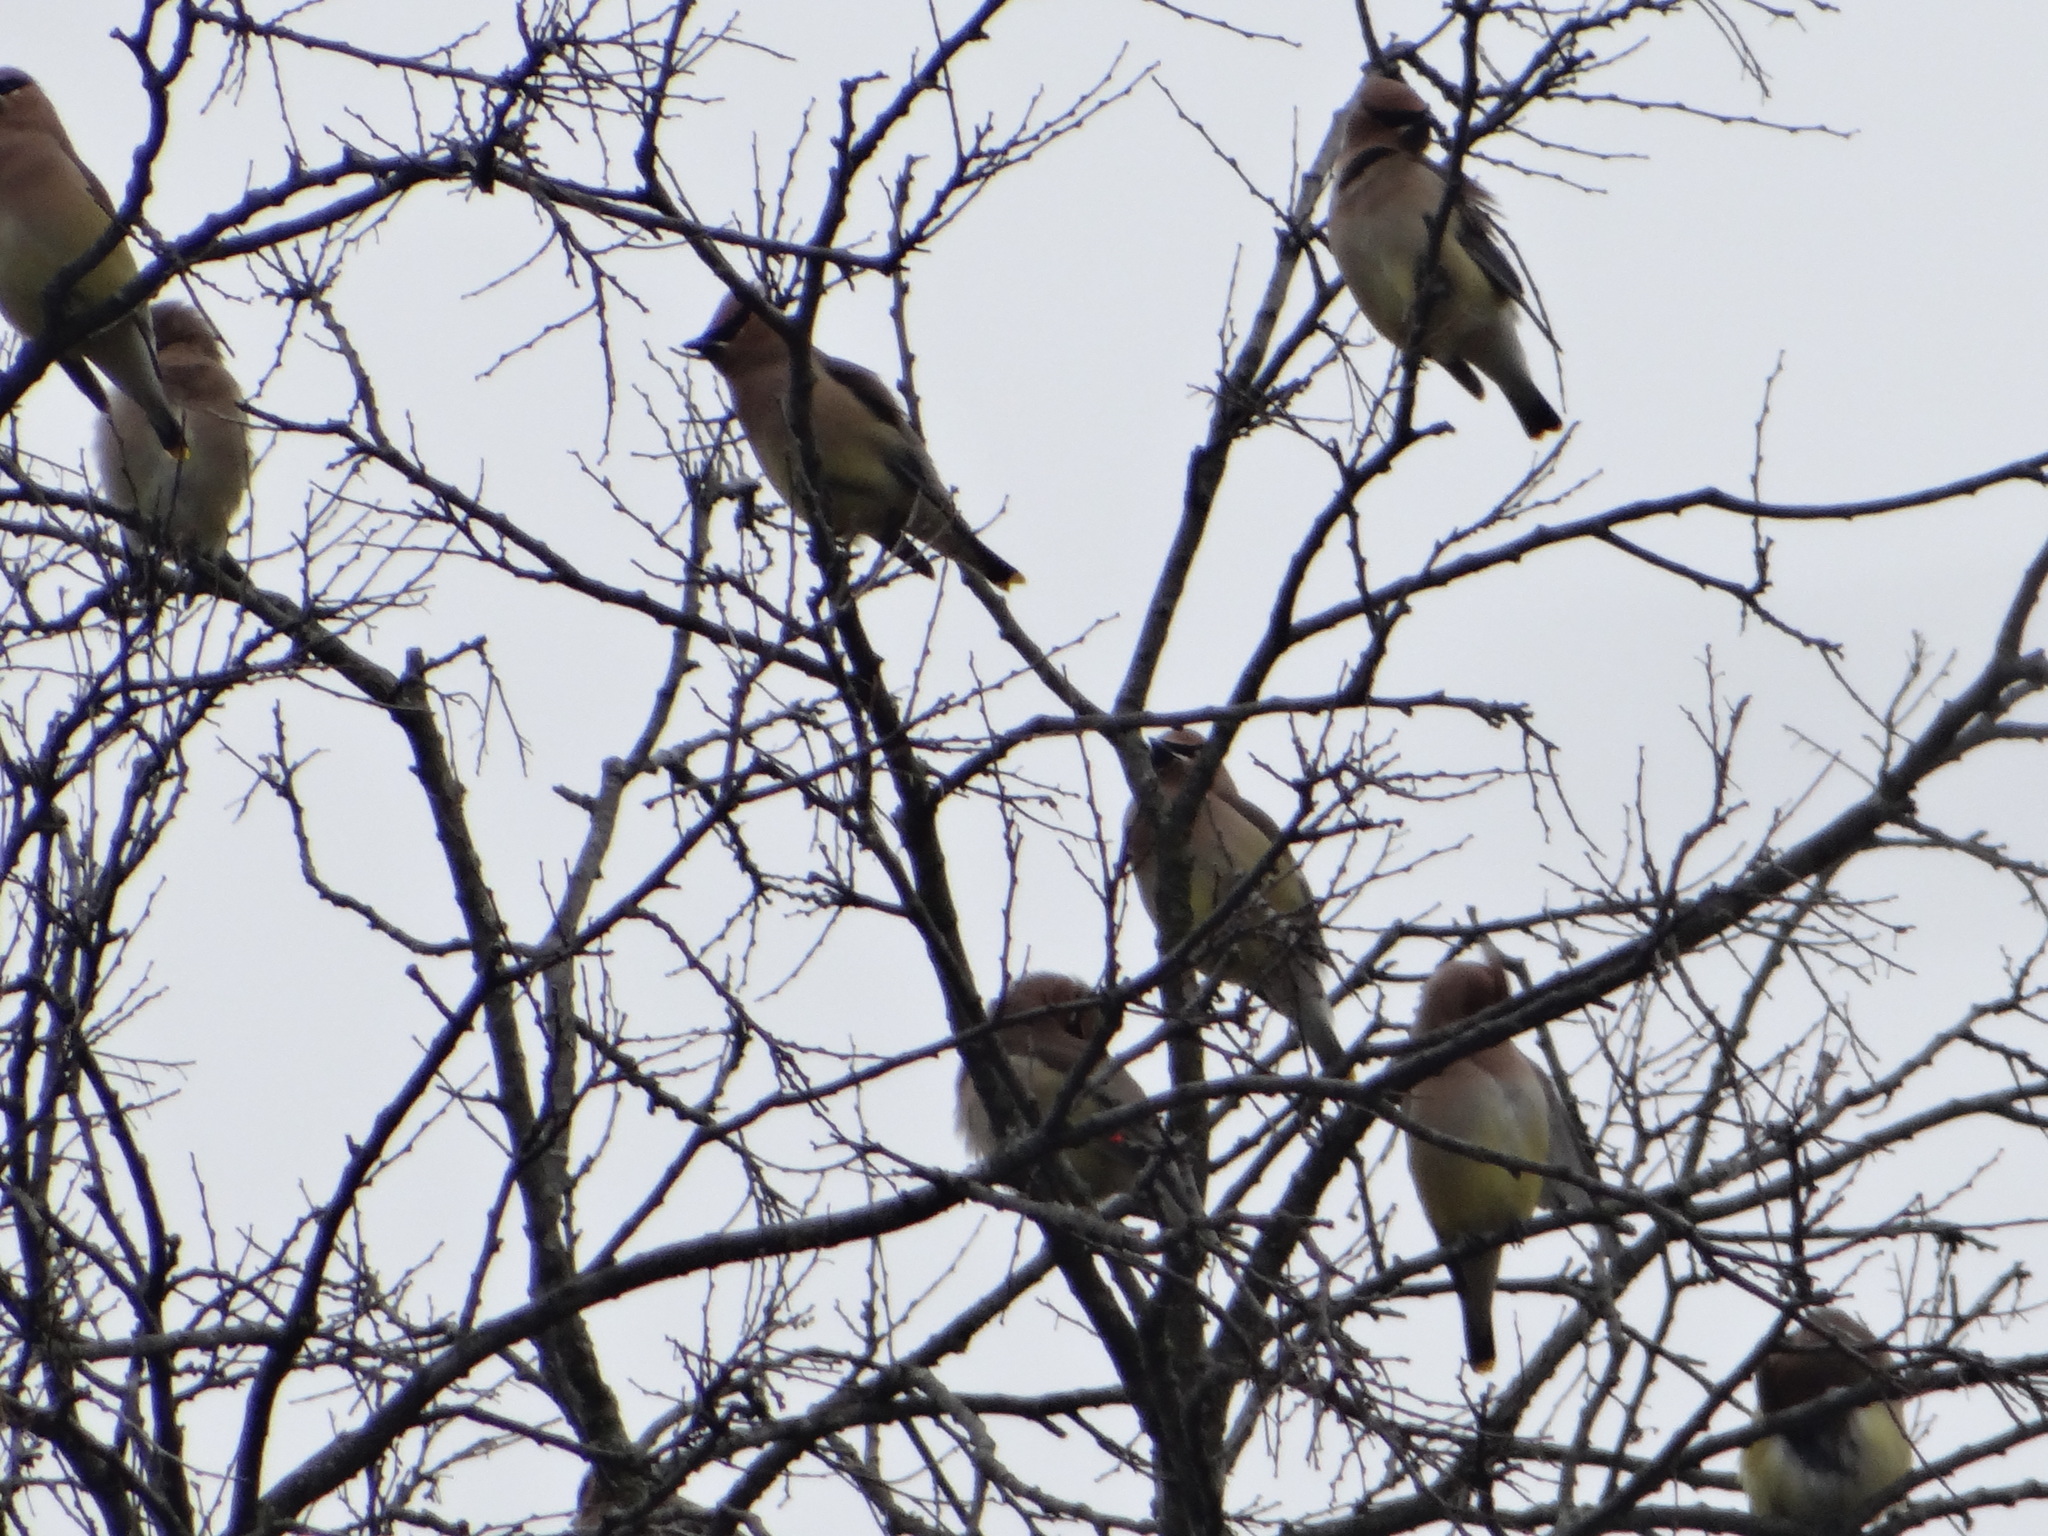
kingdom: Animalia
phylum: Chordata
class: Aves
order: Passeriformes
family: Bombycillidae
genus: Bombycilla
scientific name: Bombycilla cedrorum
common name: Cedar waxwing
